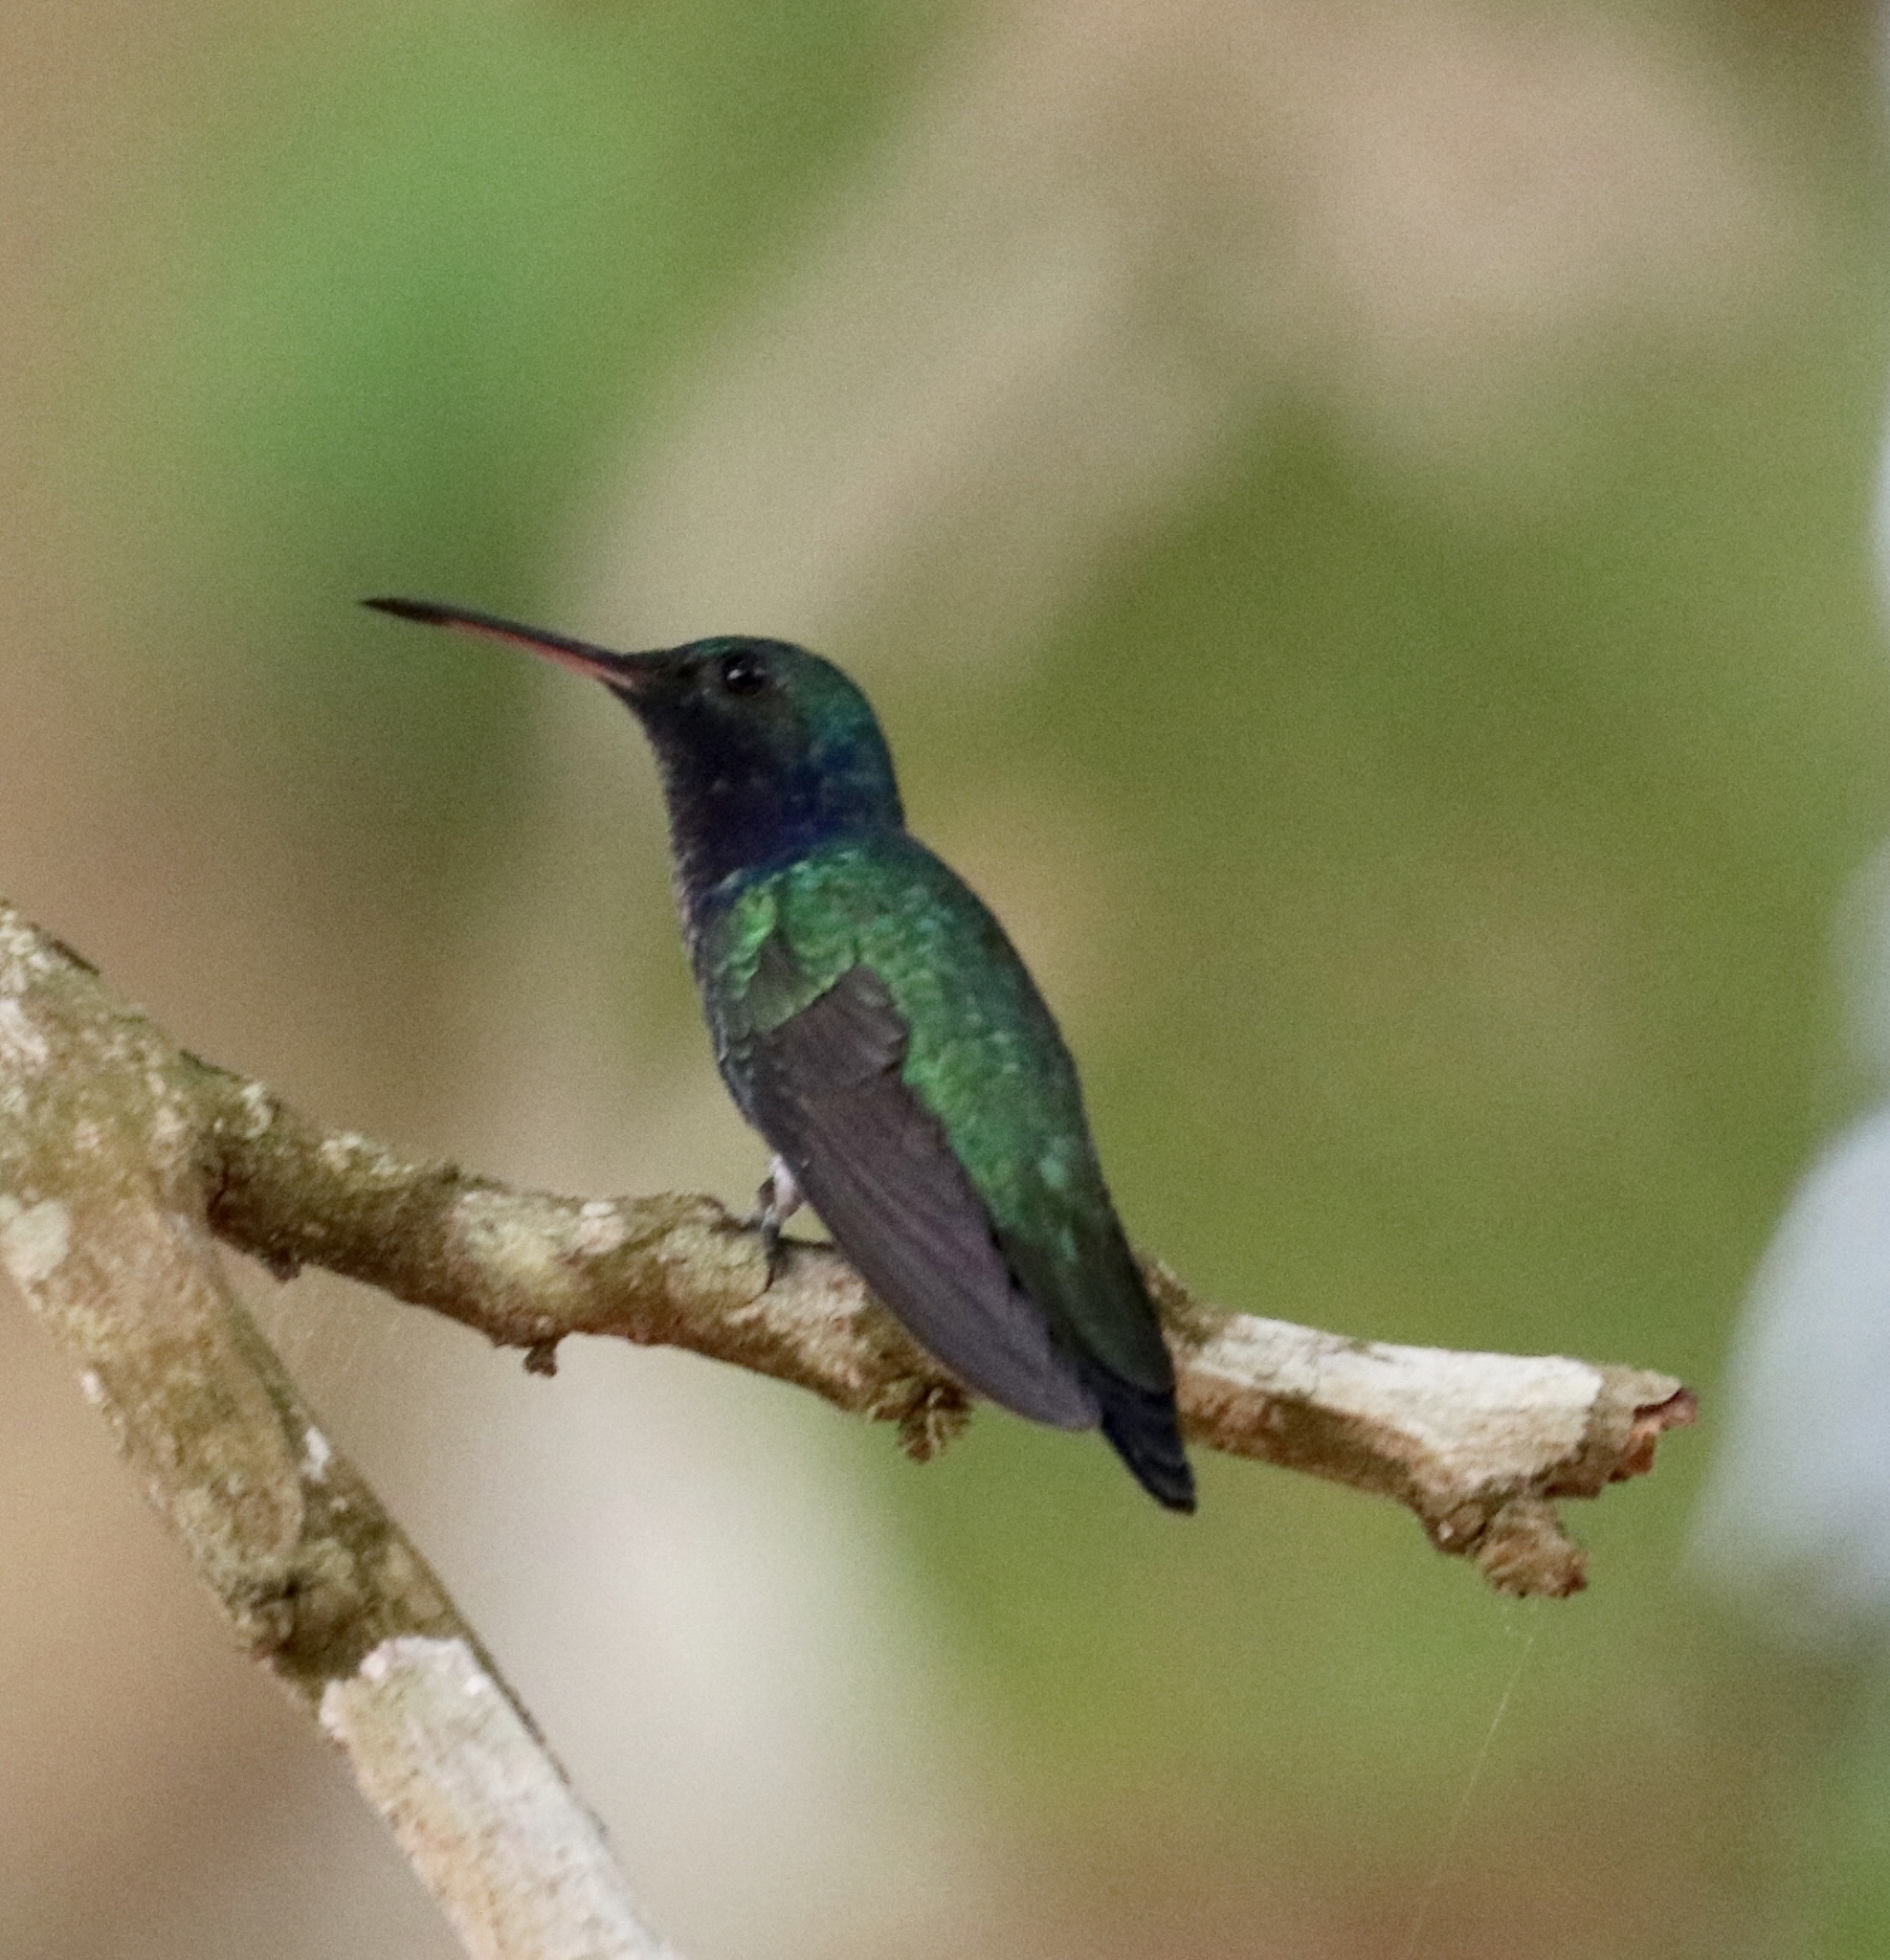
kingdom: Animalia
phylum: Chordata
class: Aves
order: Apodiformes
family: Trochilidae
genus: Chrysuronia
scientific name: Chrysuronia coeruleogularis
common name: Sapphire-throated hummingbird
